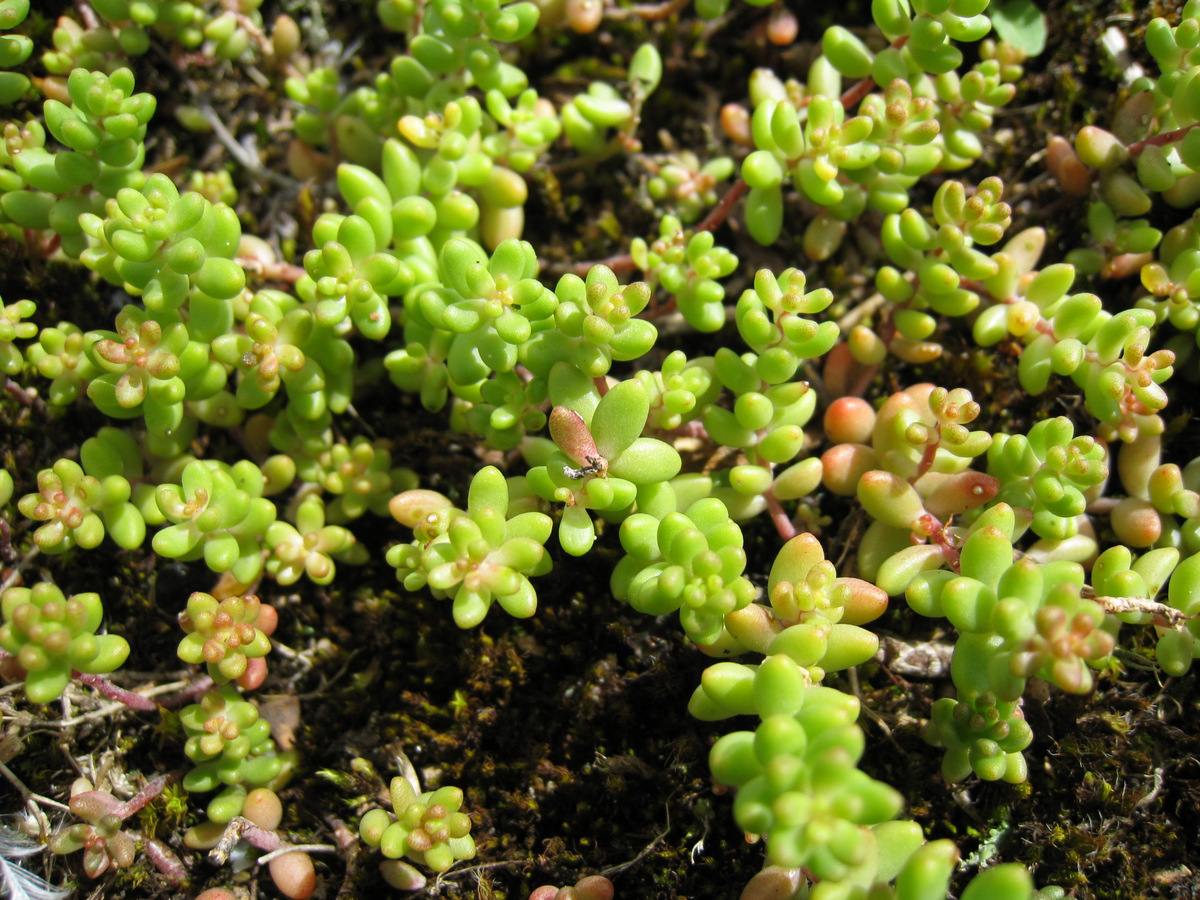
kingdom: Plantae
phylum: Tracheophyta
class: Magnoliopsida
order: Saxifragales
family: Crassulaceae
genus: Sedum
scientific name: Sedum album
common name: White stonecrop
